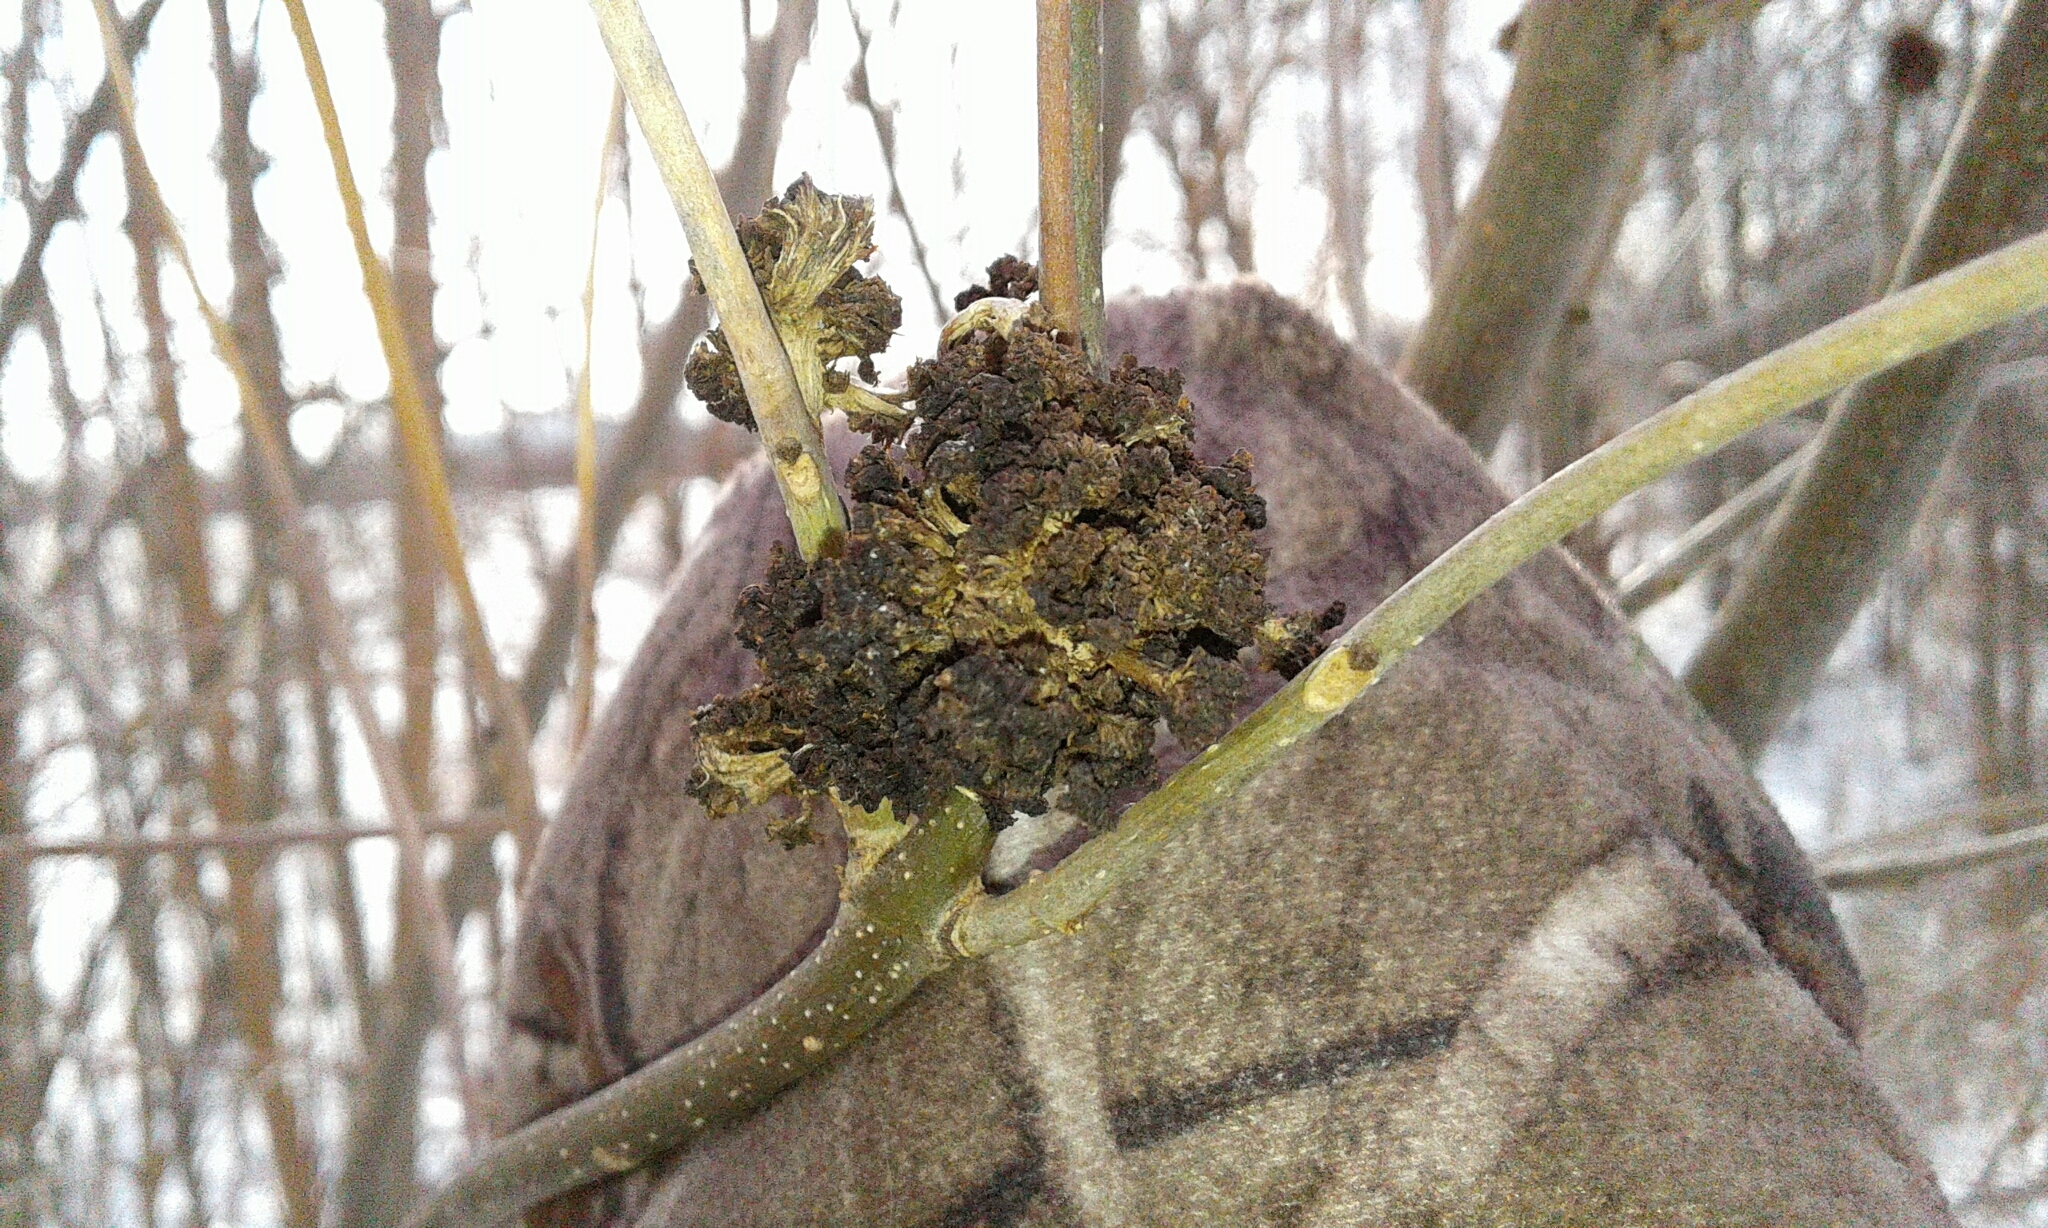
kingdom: Animalia
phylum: Arthropoda
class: Arachnida
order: Trombidiformes
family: Eriophyidae
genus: Aceria
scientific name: Aceria fraxiniflora
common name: Ash flower gall mite
